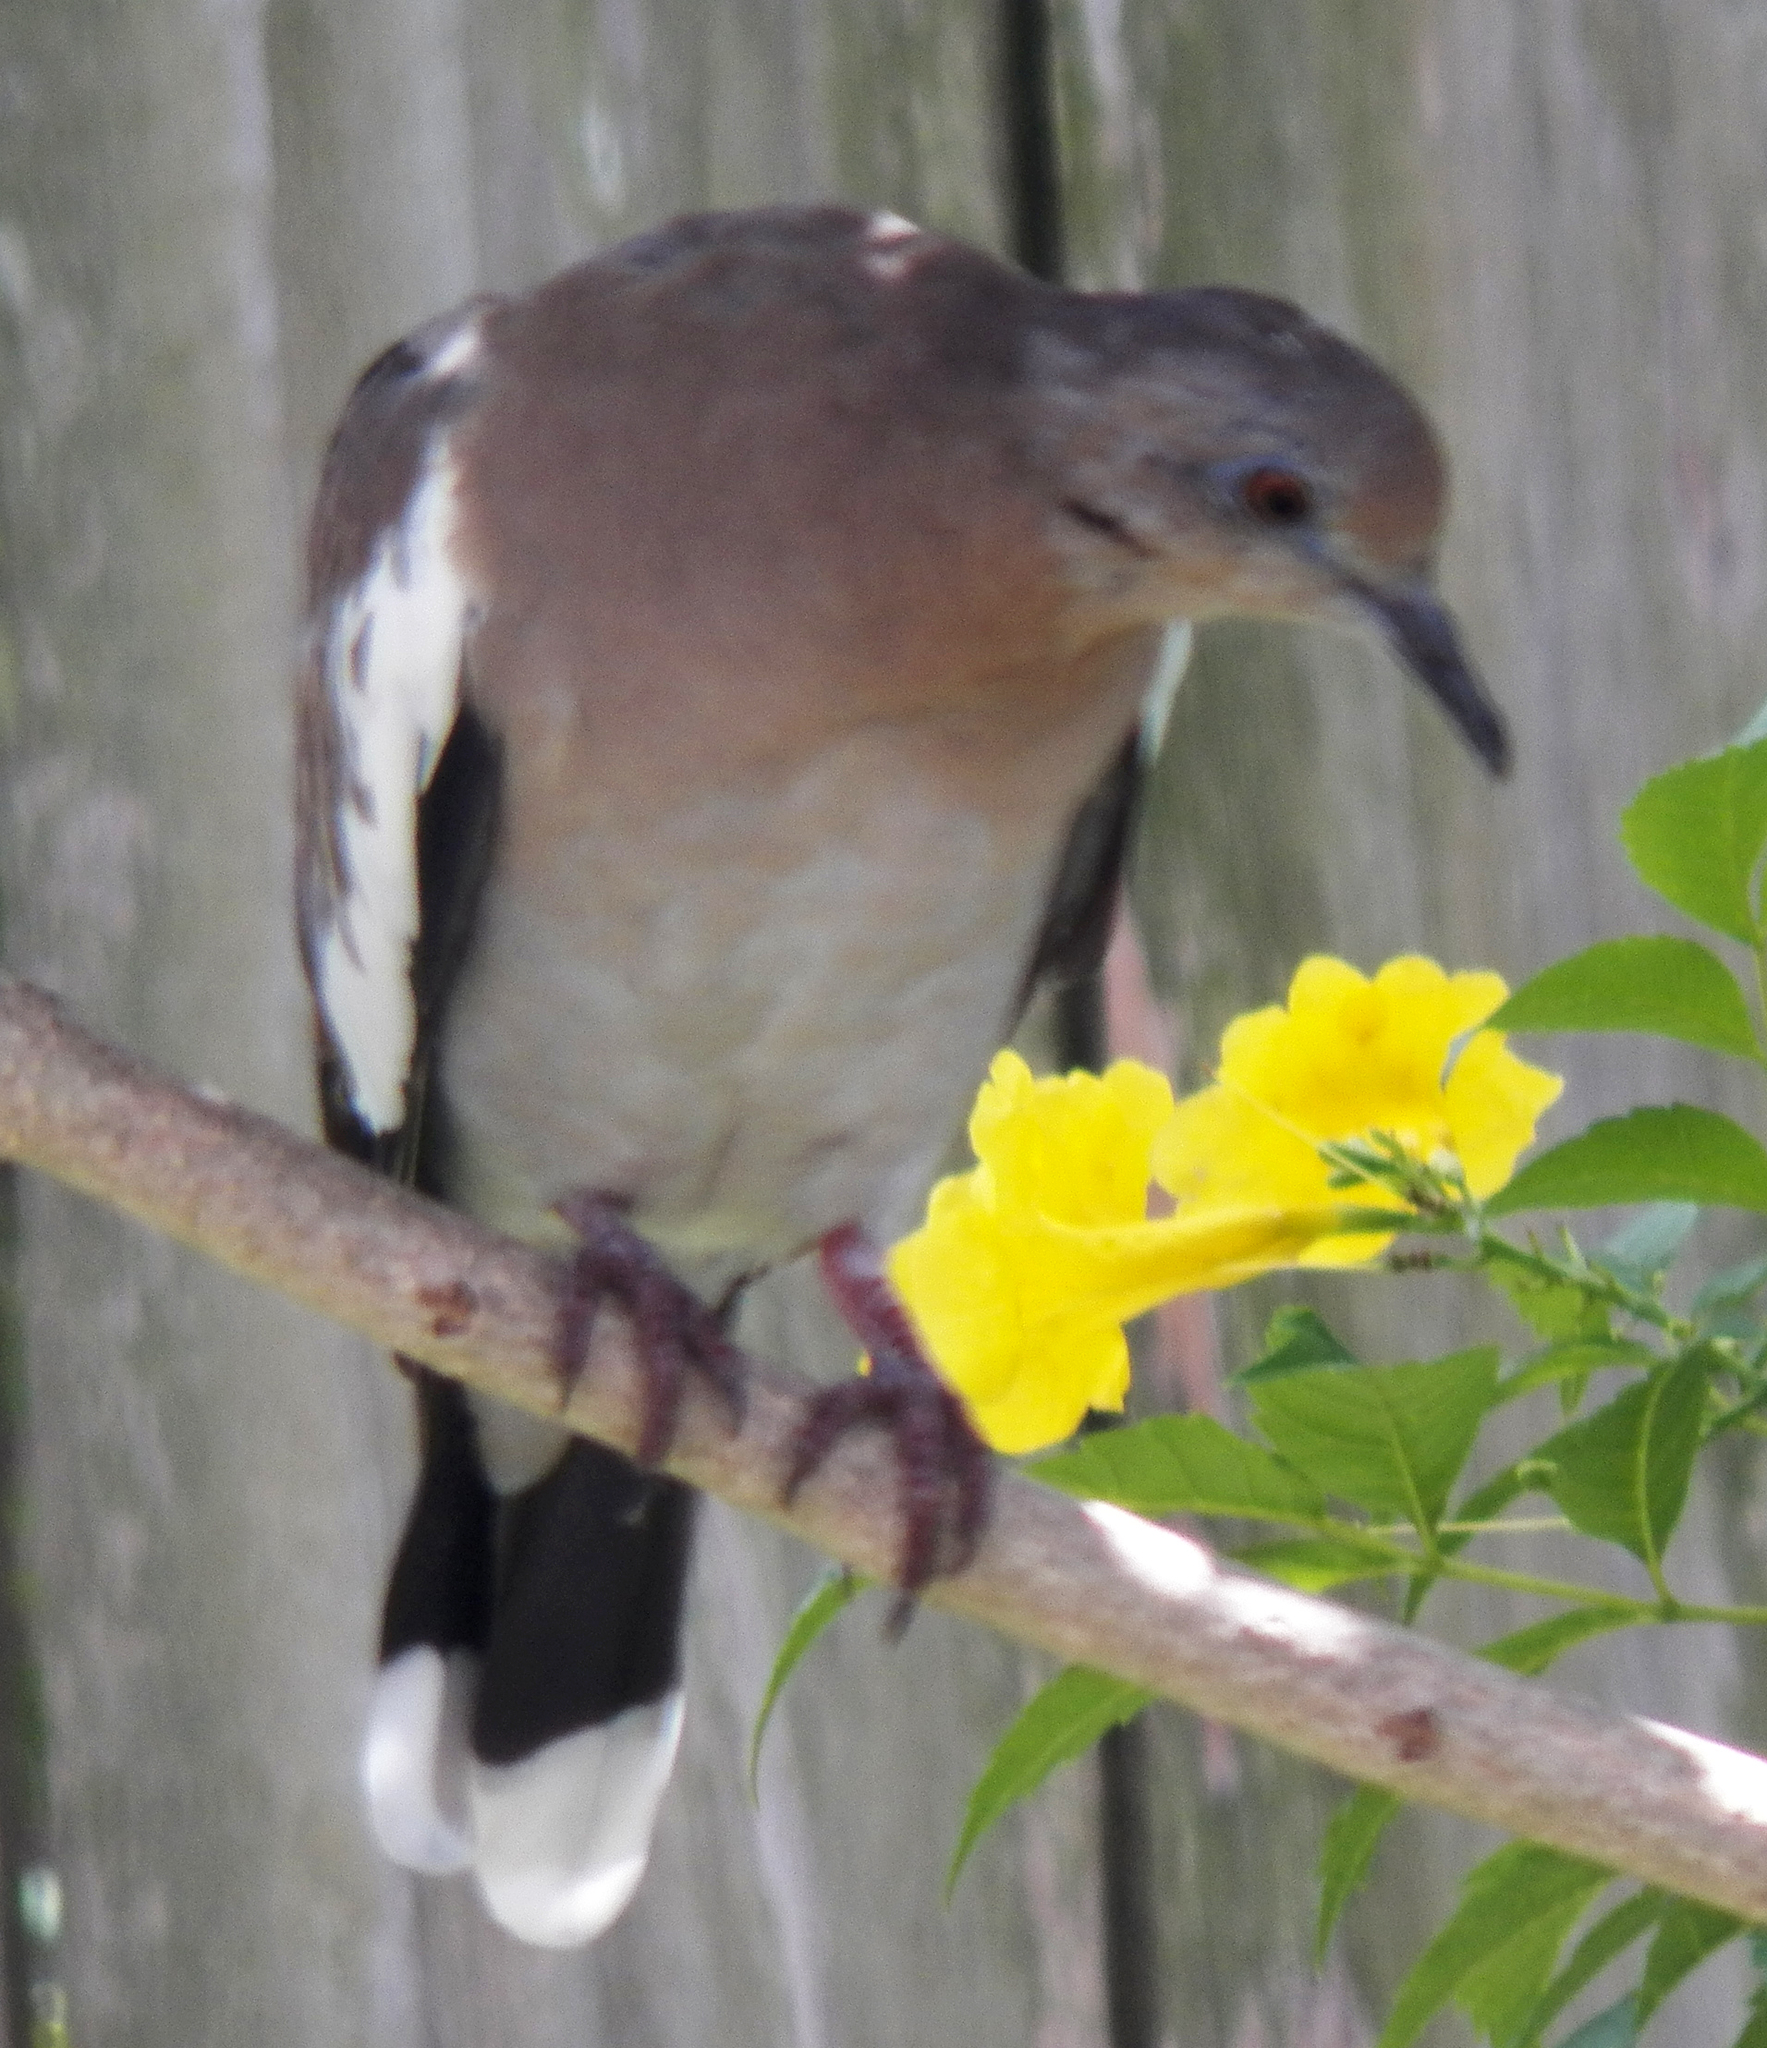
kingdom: Animalia
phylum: Chordata
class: Aves
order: Columbiformes
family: Columbidae
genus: Zenaida
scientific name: Zenaida asiatica
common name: White-winged dove
